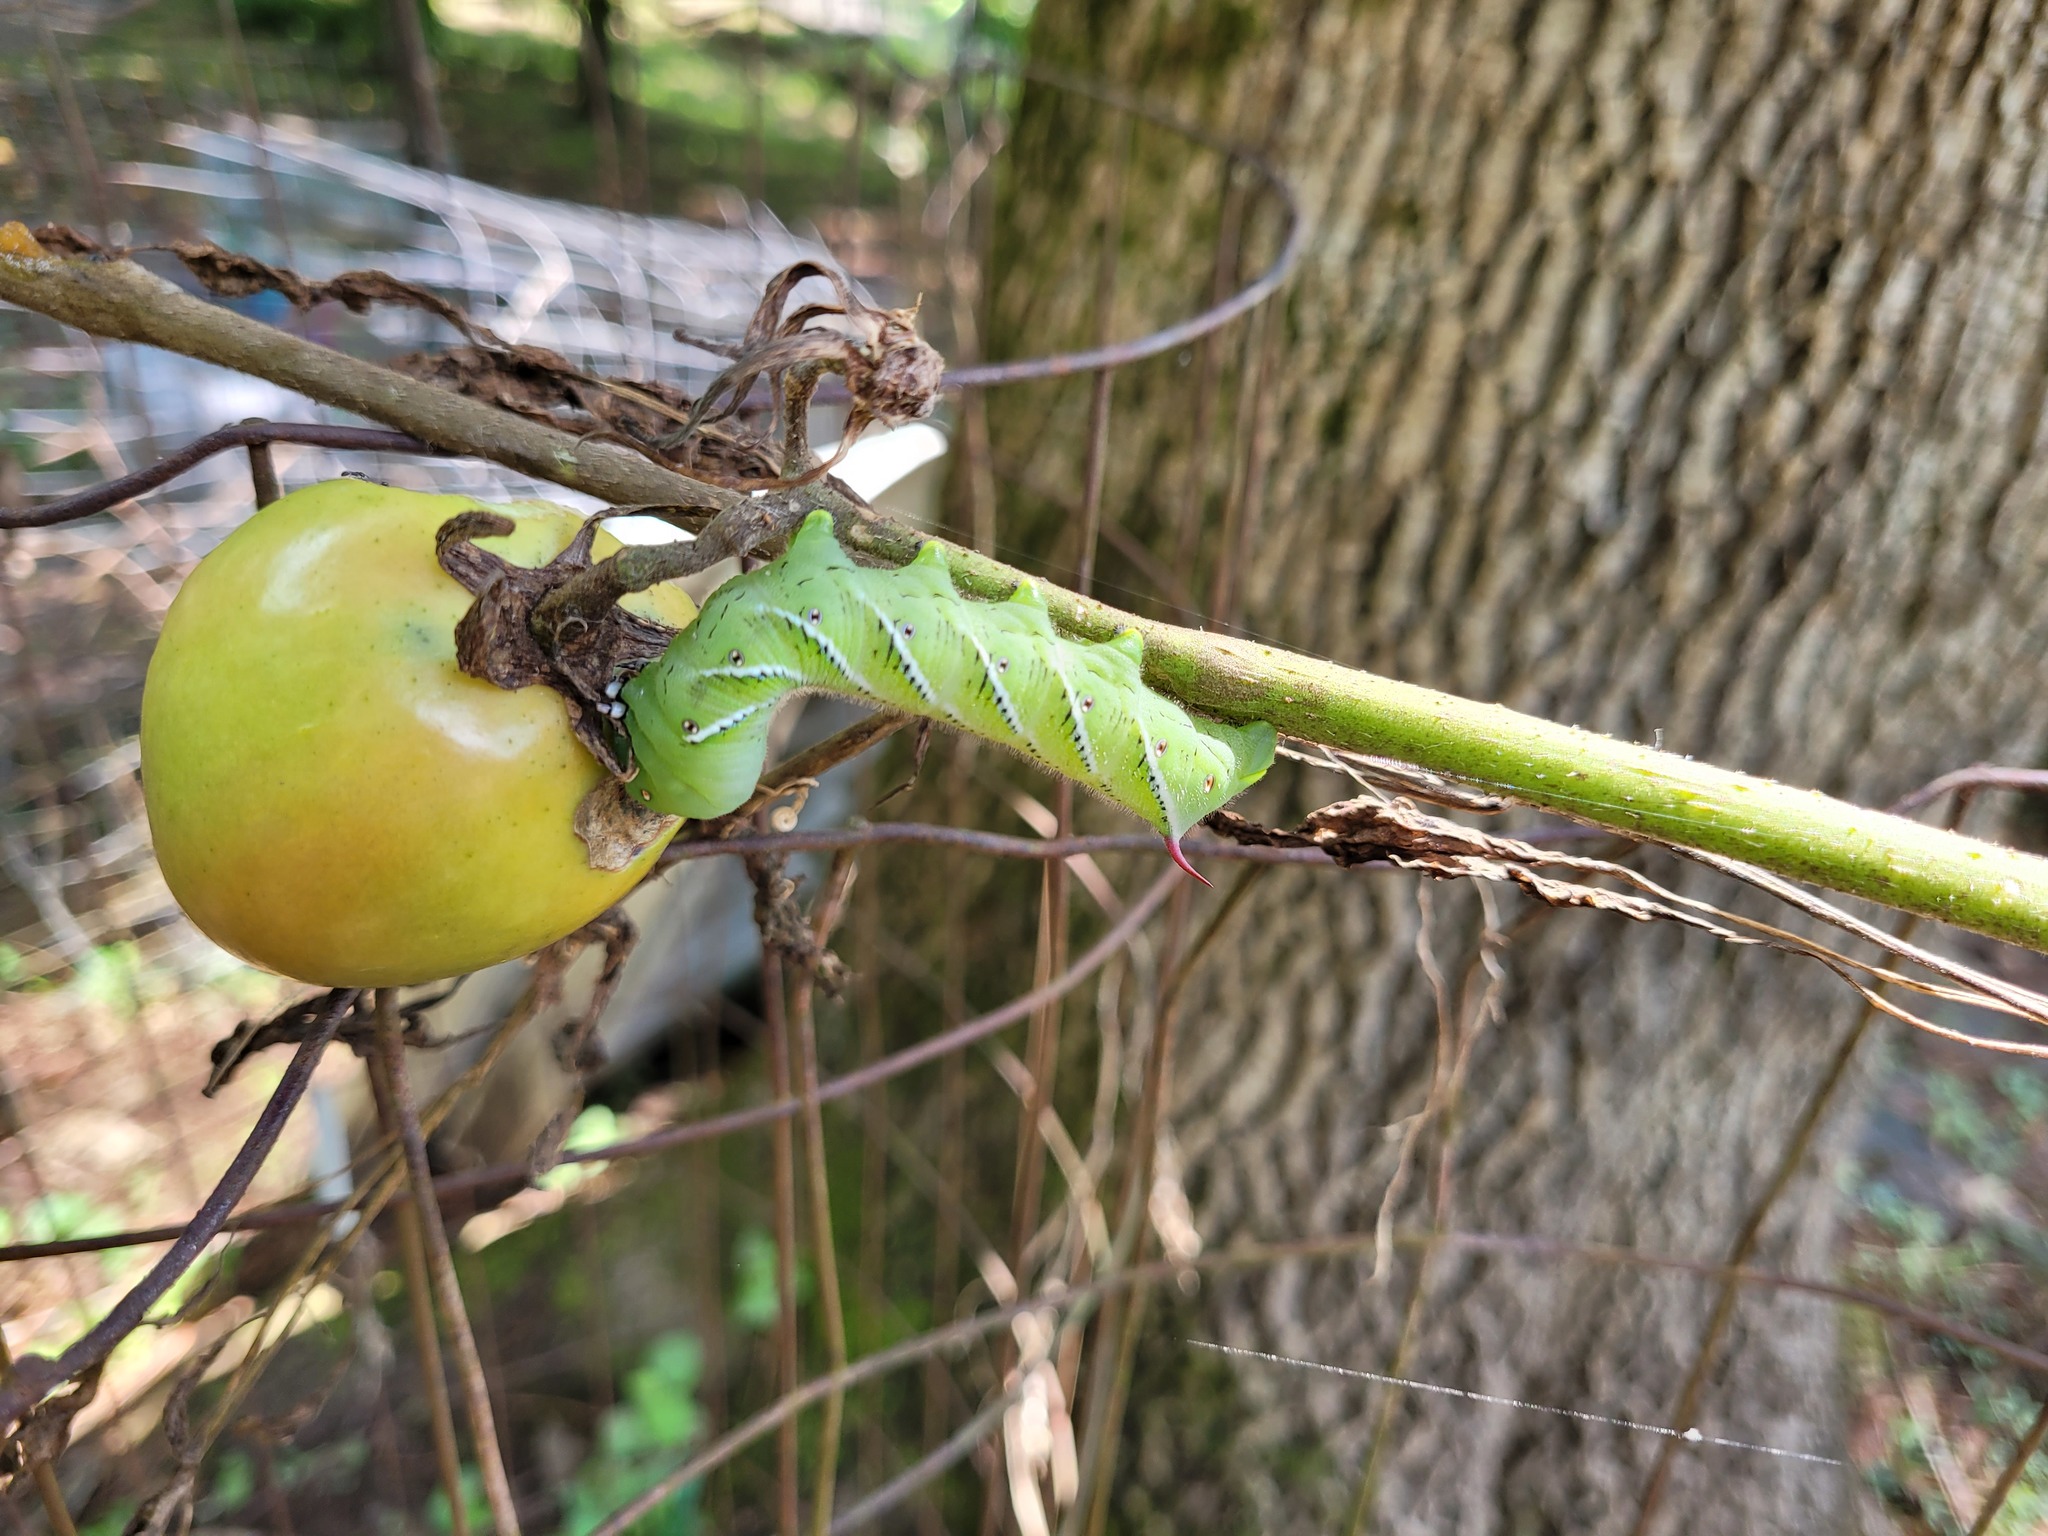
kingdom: Animalia
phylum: Arthropoda
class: Insecta
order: Lepidoptera
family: Sphingidae
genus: Manduca
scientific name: Manduca sexta
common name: Carolina sphinx
